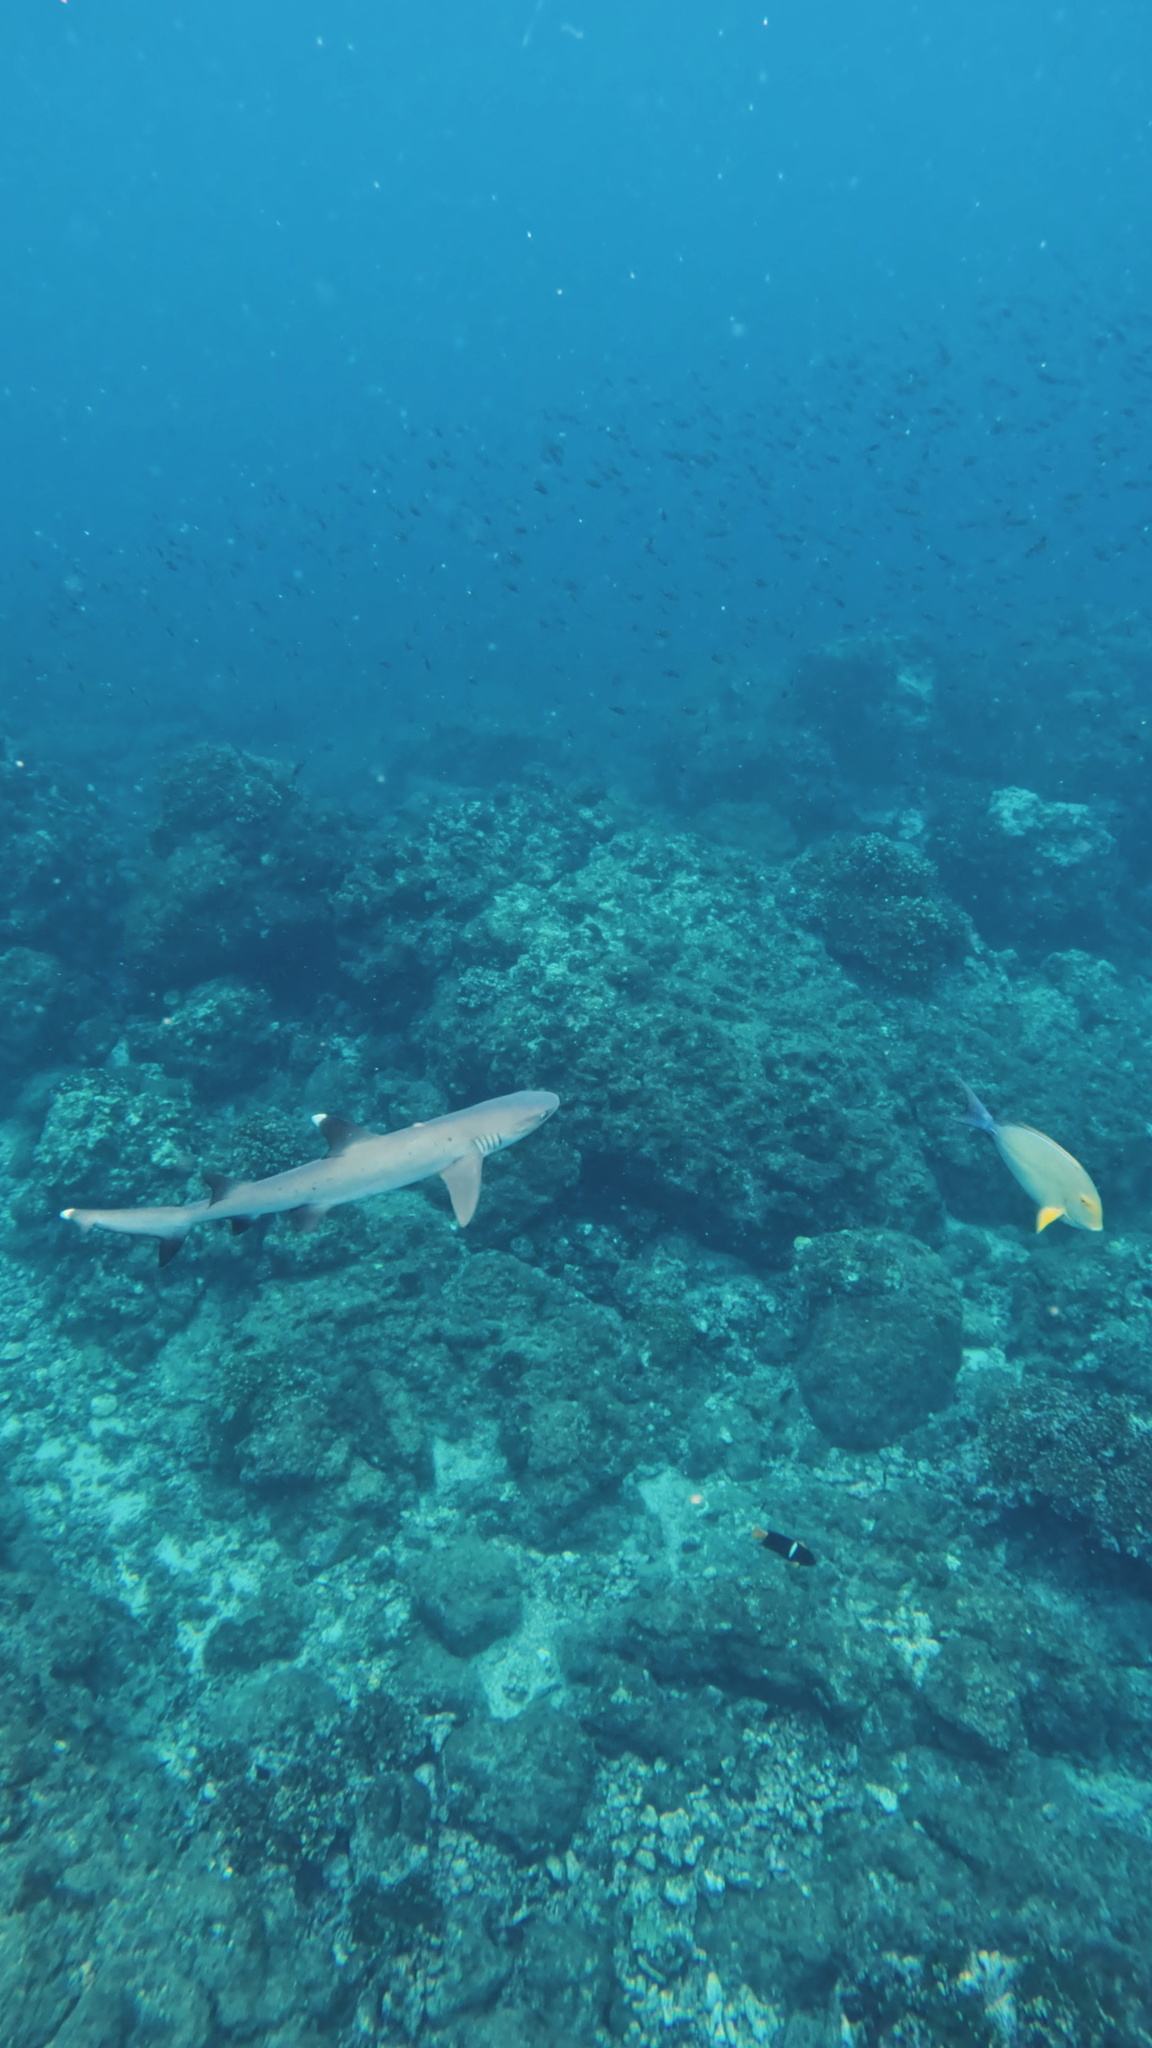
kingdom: Animalia
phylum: Chordata
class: Elasmobranchii
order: Carcharhiniformes
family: Carcharhinidae
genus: Triaenodon
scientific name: Triaenodon obesus
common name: Whitetip reef shark
